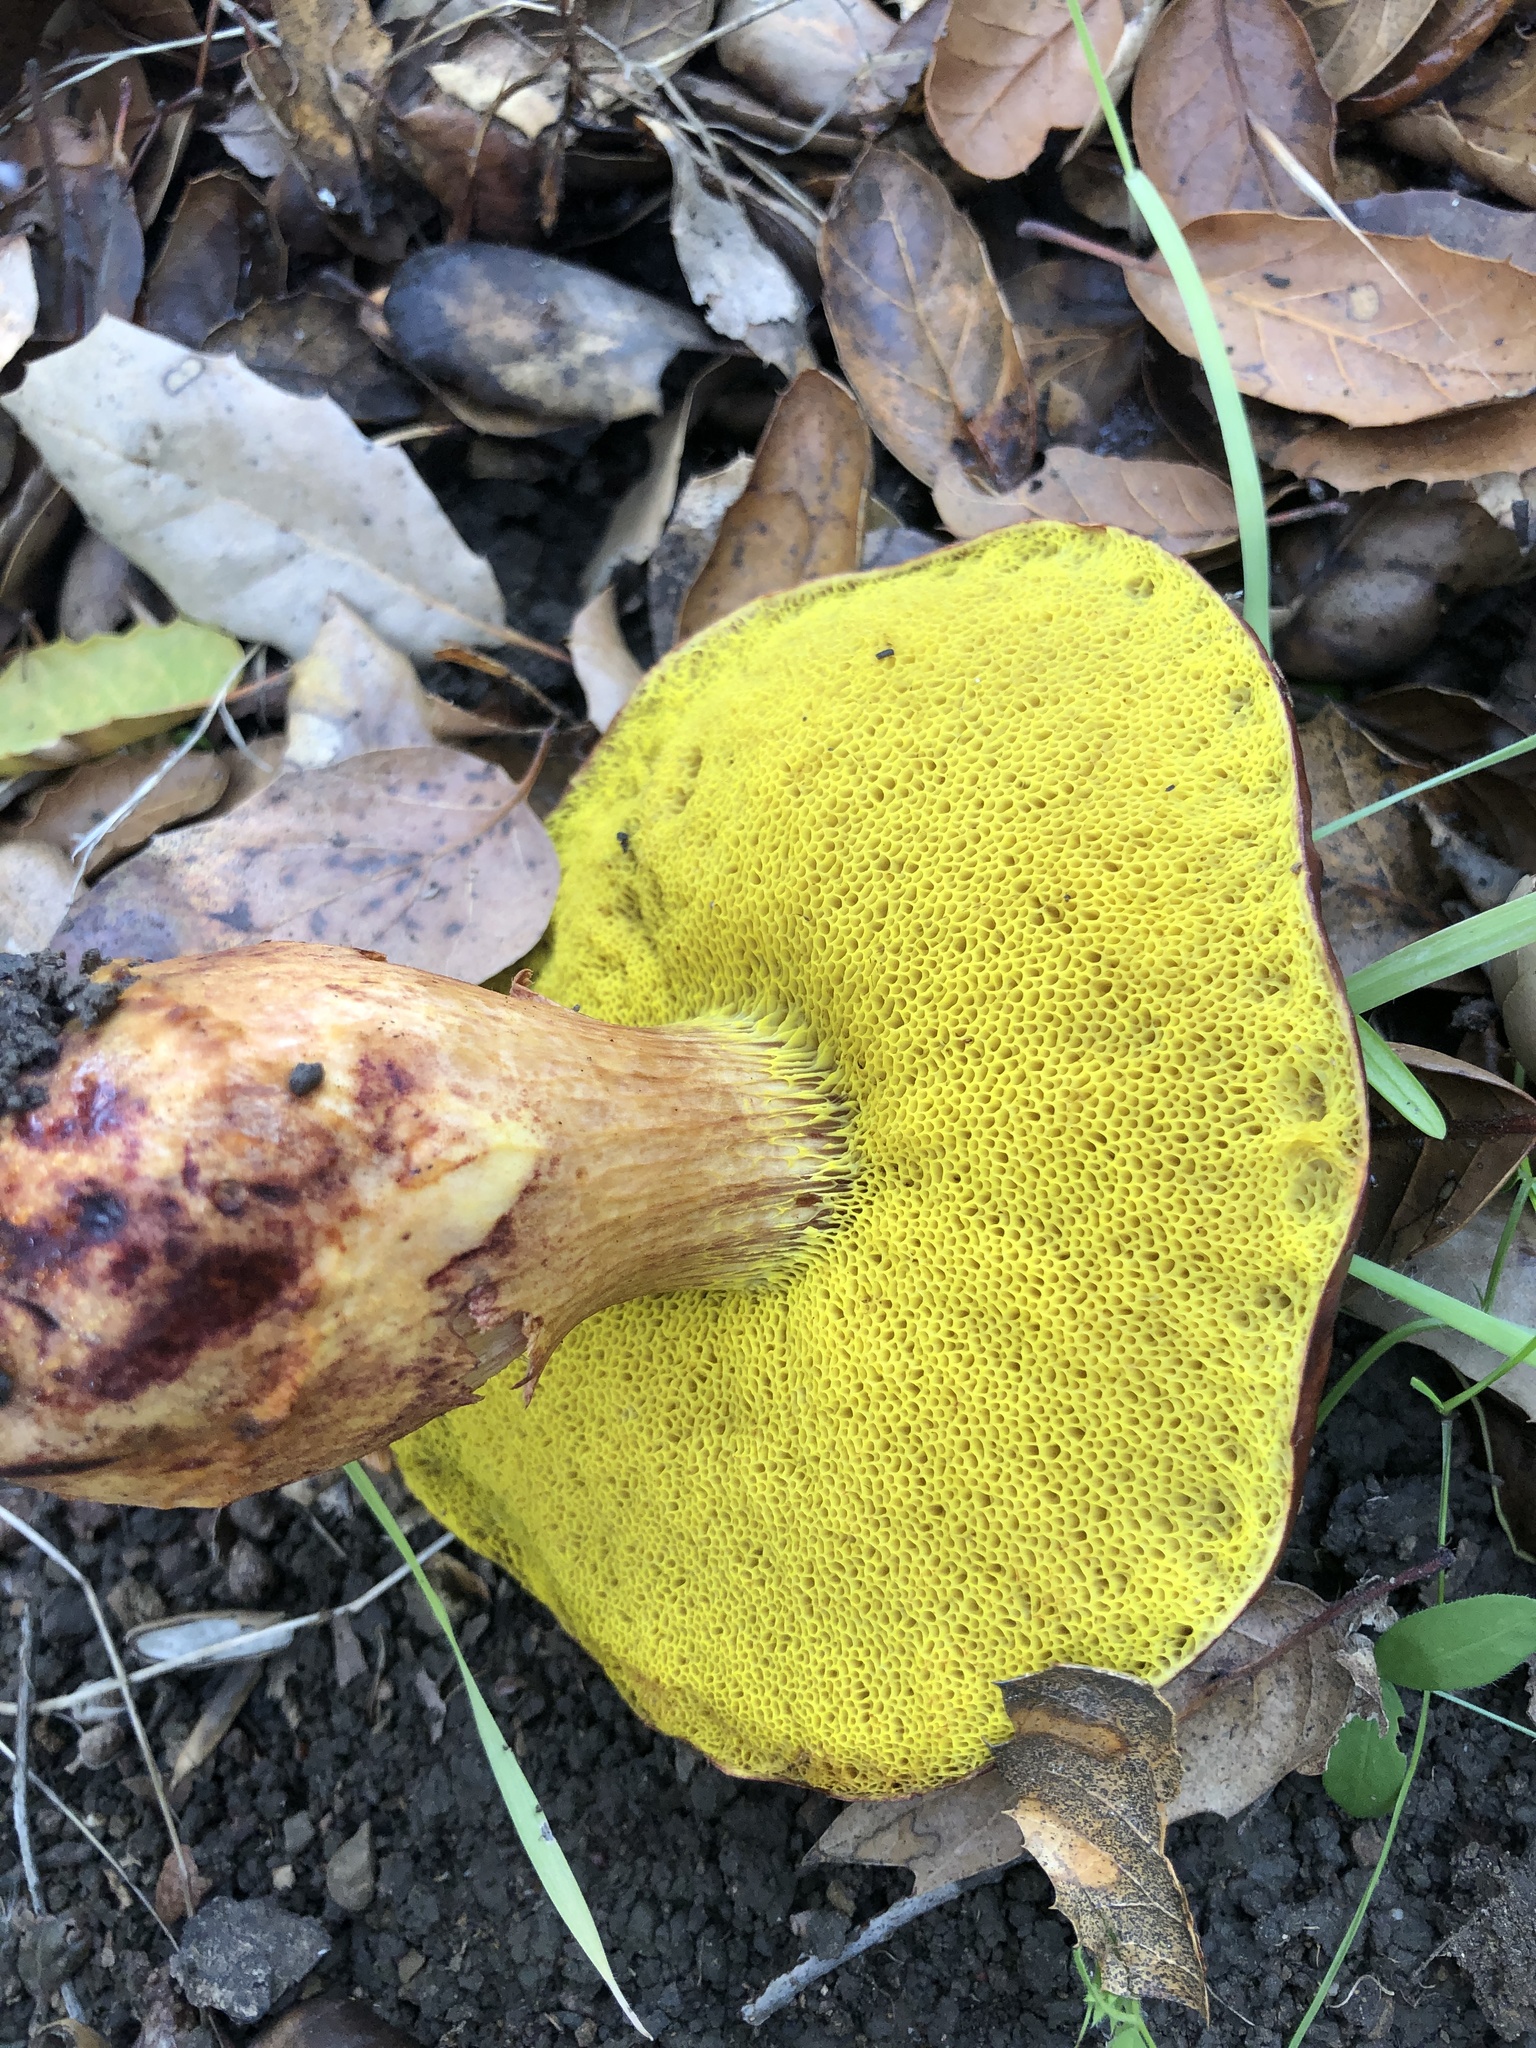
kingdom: Fungi
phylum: Basidiomycota
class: Agaricomycetes
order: Boletales
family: Boletaceae
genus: Aureoboletus
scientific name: Aureoboletus flaviporus
